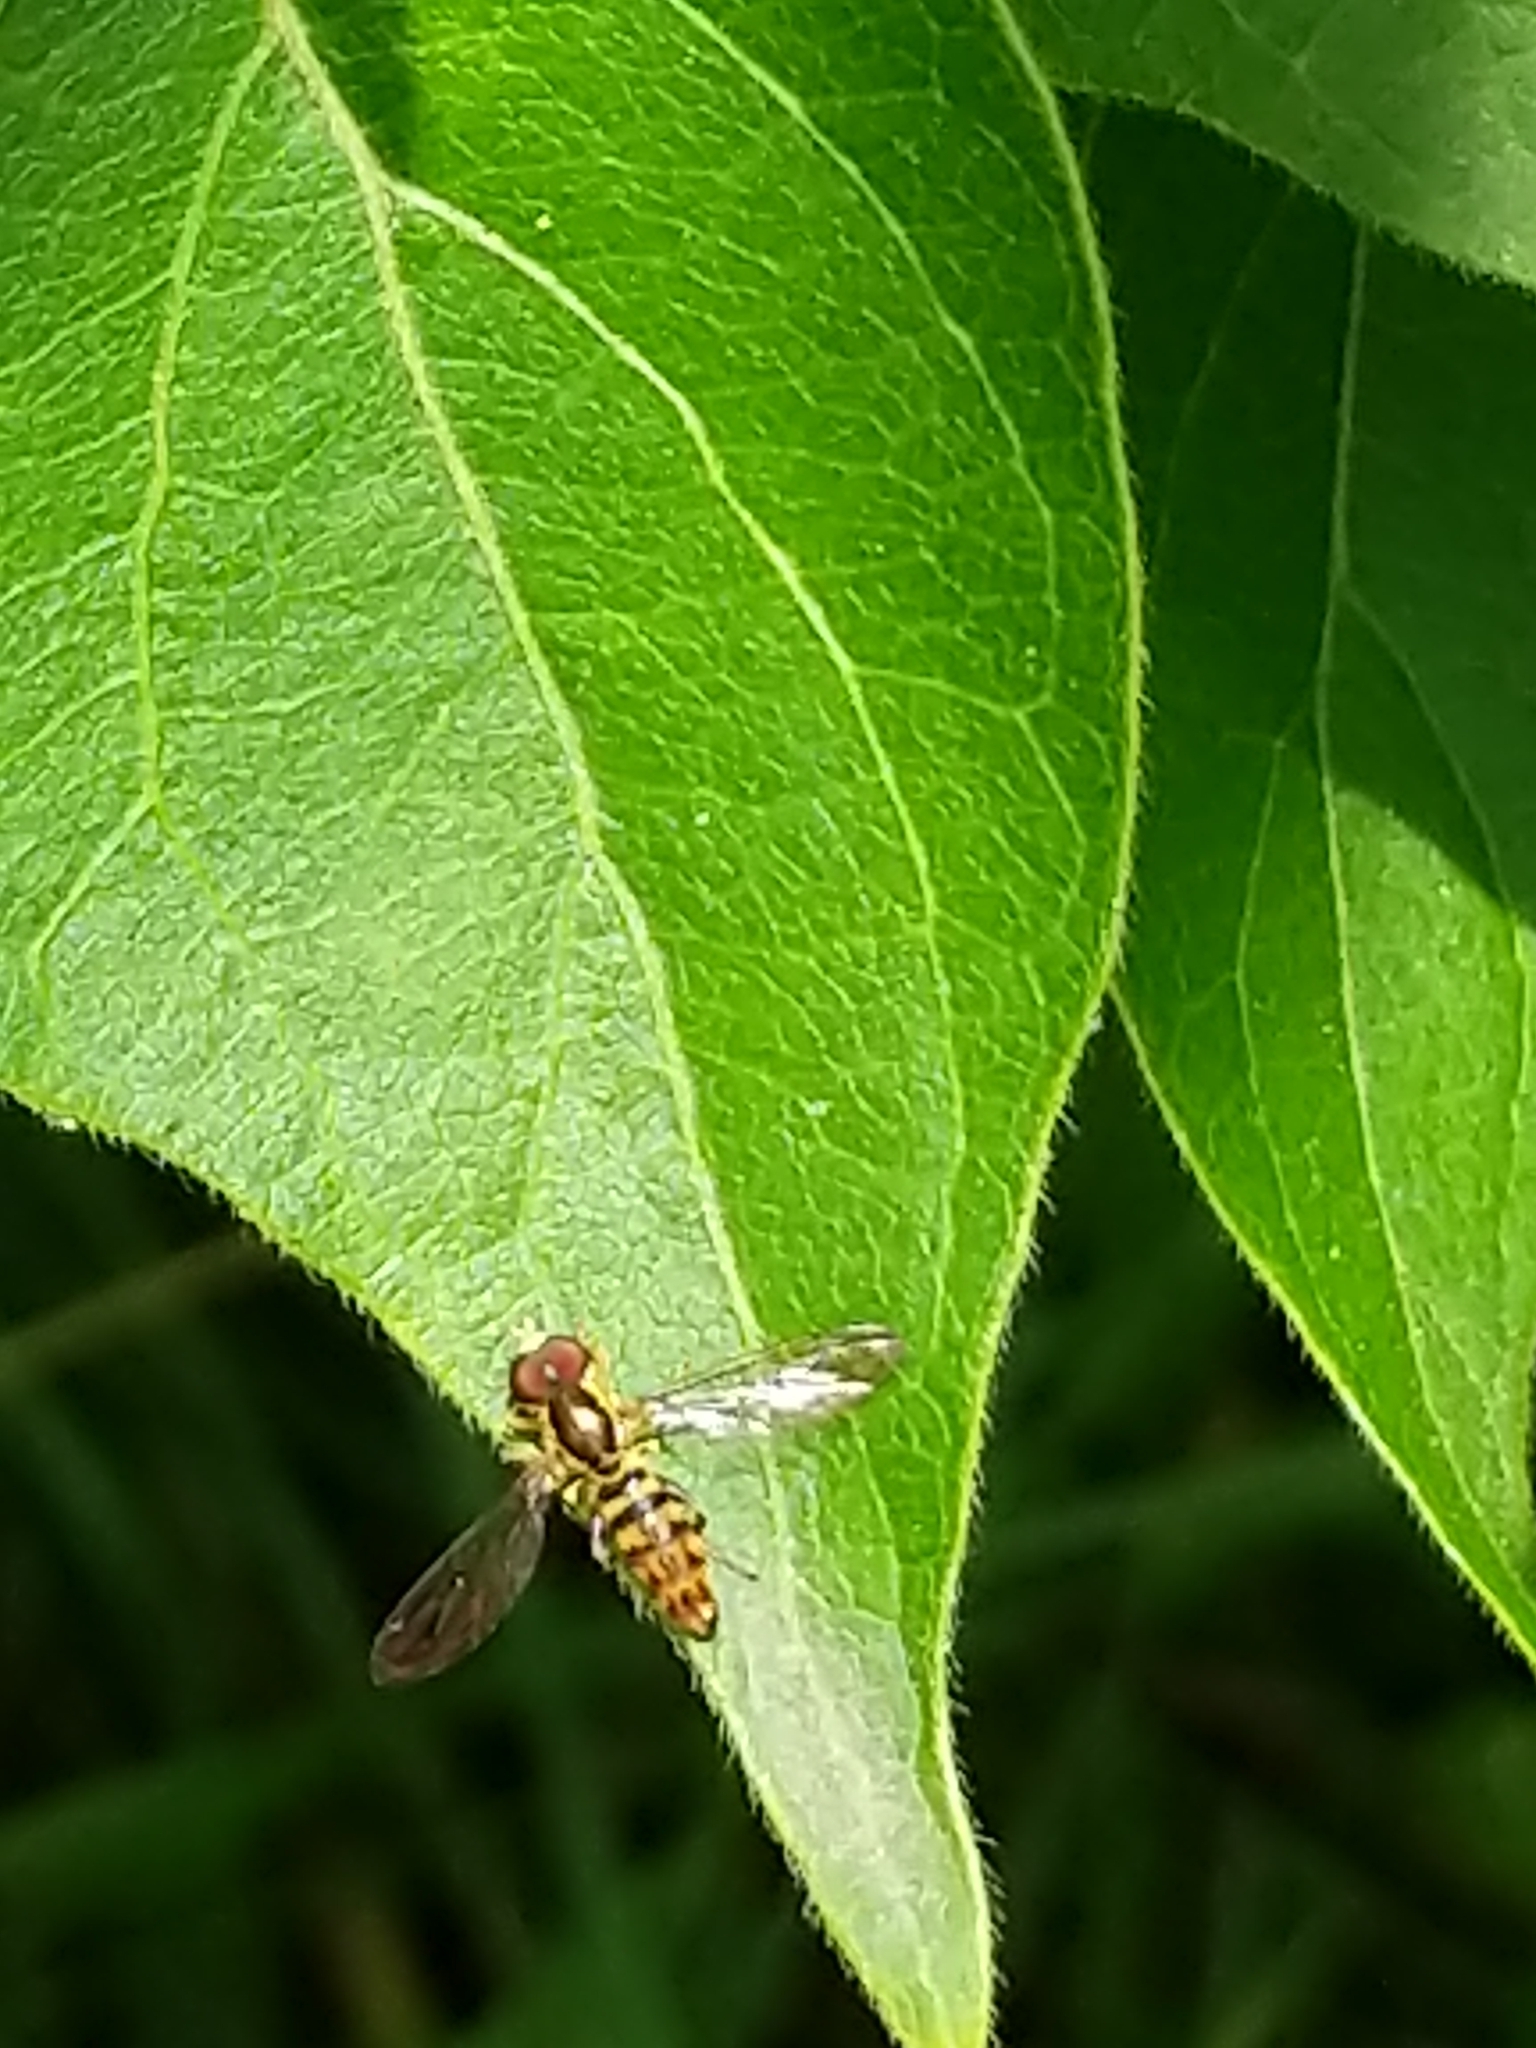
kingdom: Animalia
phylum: Arthropoda
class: Insecta
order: Diptera
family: Syrphidae
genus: Toxomerus
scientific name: Toxomerus geminatus
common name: Eastern calligrapher
